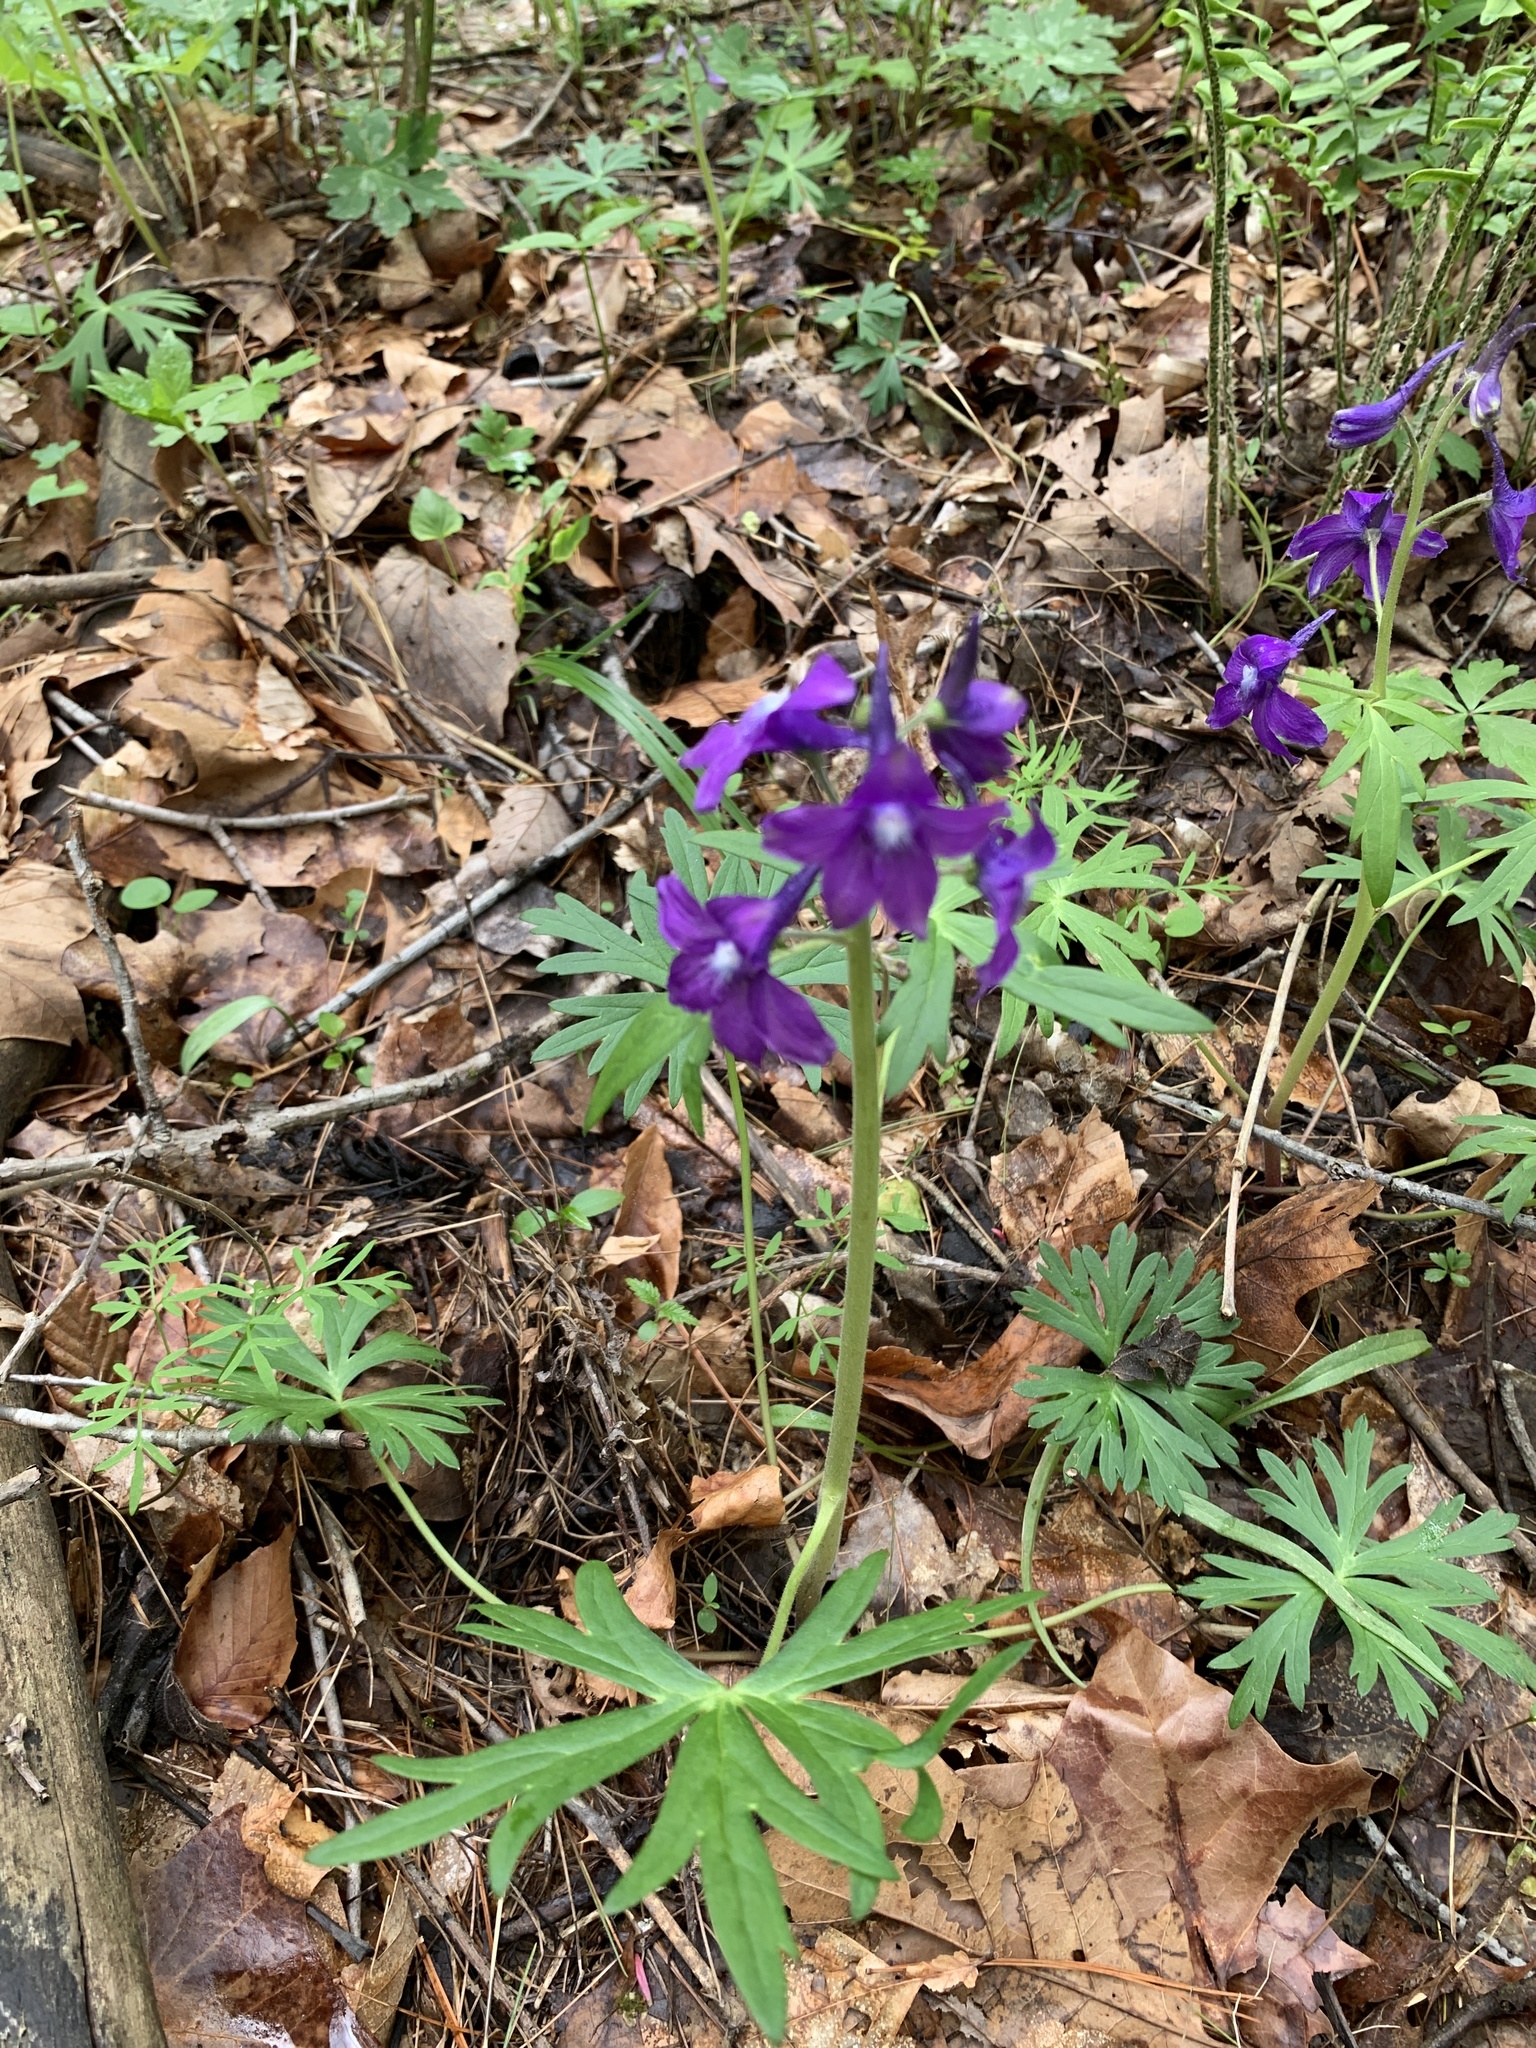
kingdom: Plantae
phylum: Tracheophyta
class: Magnoliopsida
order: Ranunculales
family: Ranunculaceae
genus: Delphinium
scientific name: Delphinium tricorne
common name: Dwarf larkspur
